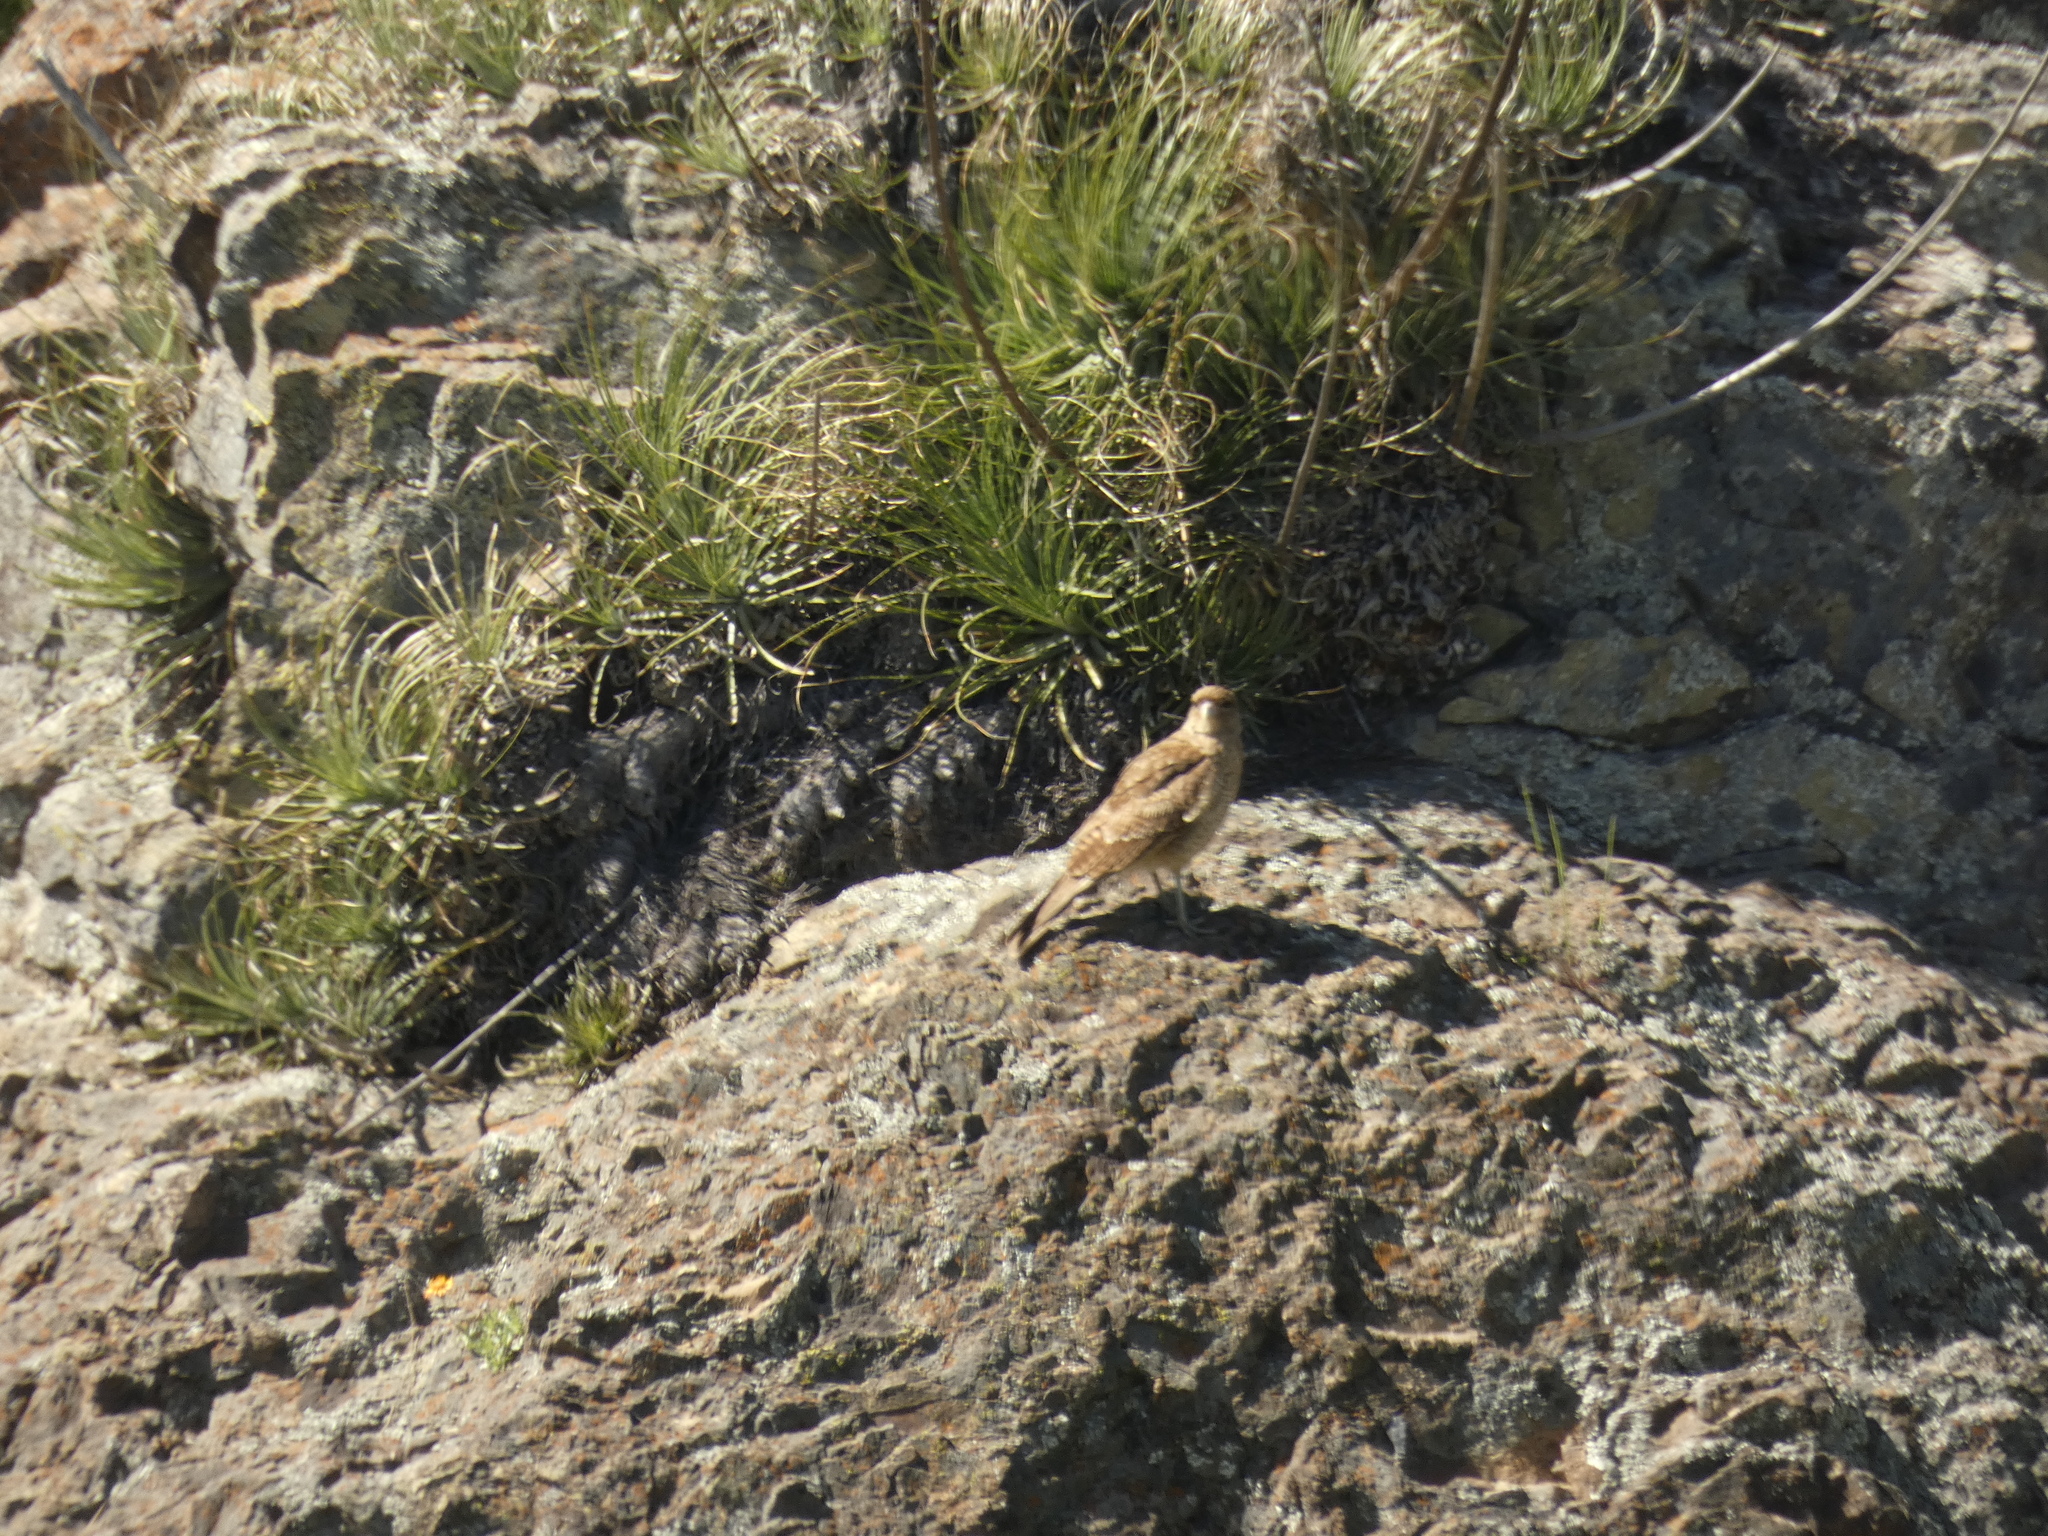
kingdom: Animalia
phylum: Chordata
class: Aves
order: Falconiformes
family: Falconidae
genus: Daptrius
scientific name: Daptrius
